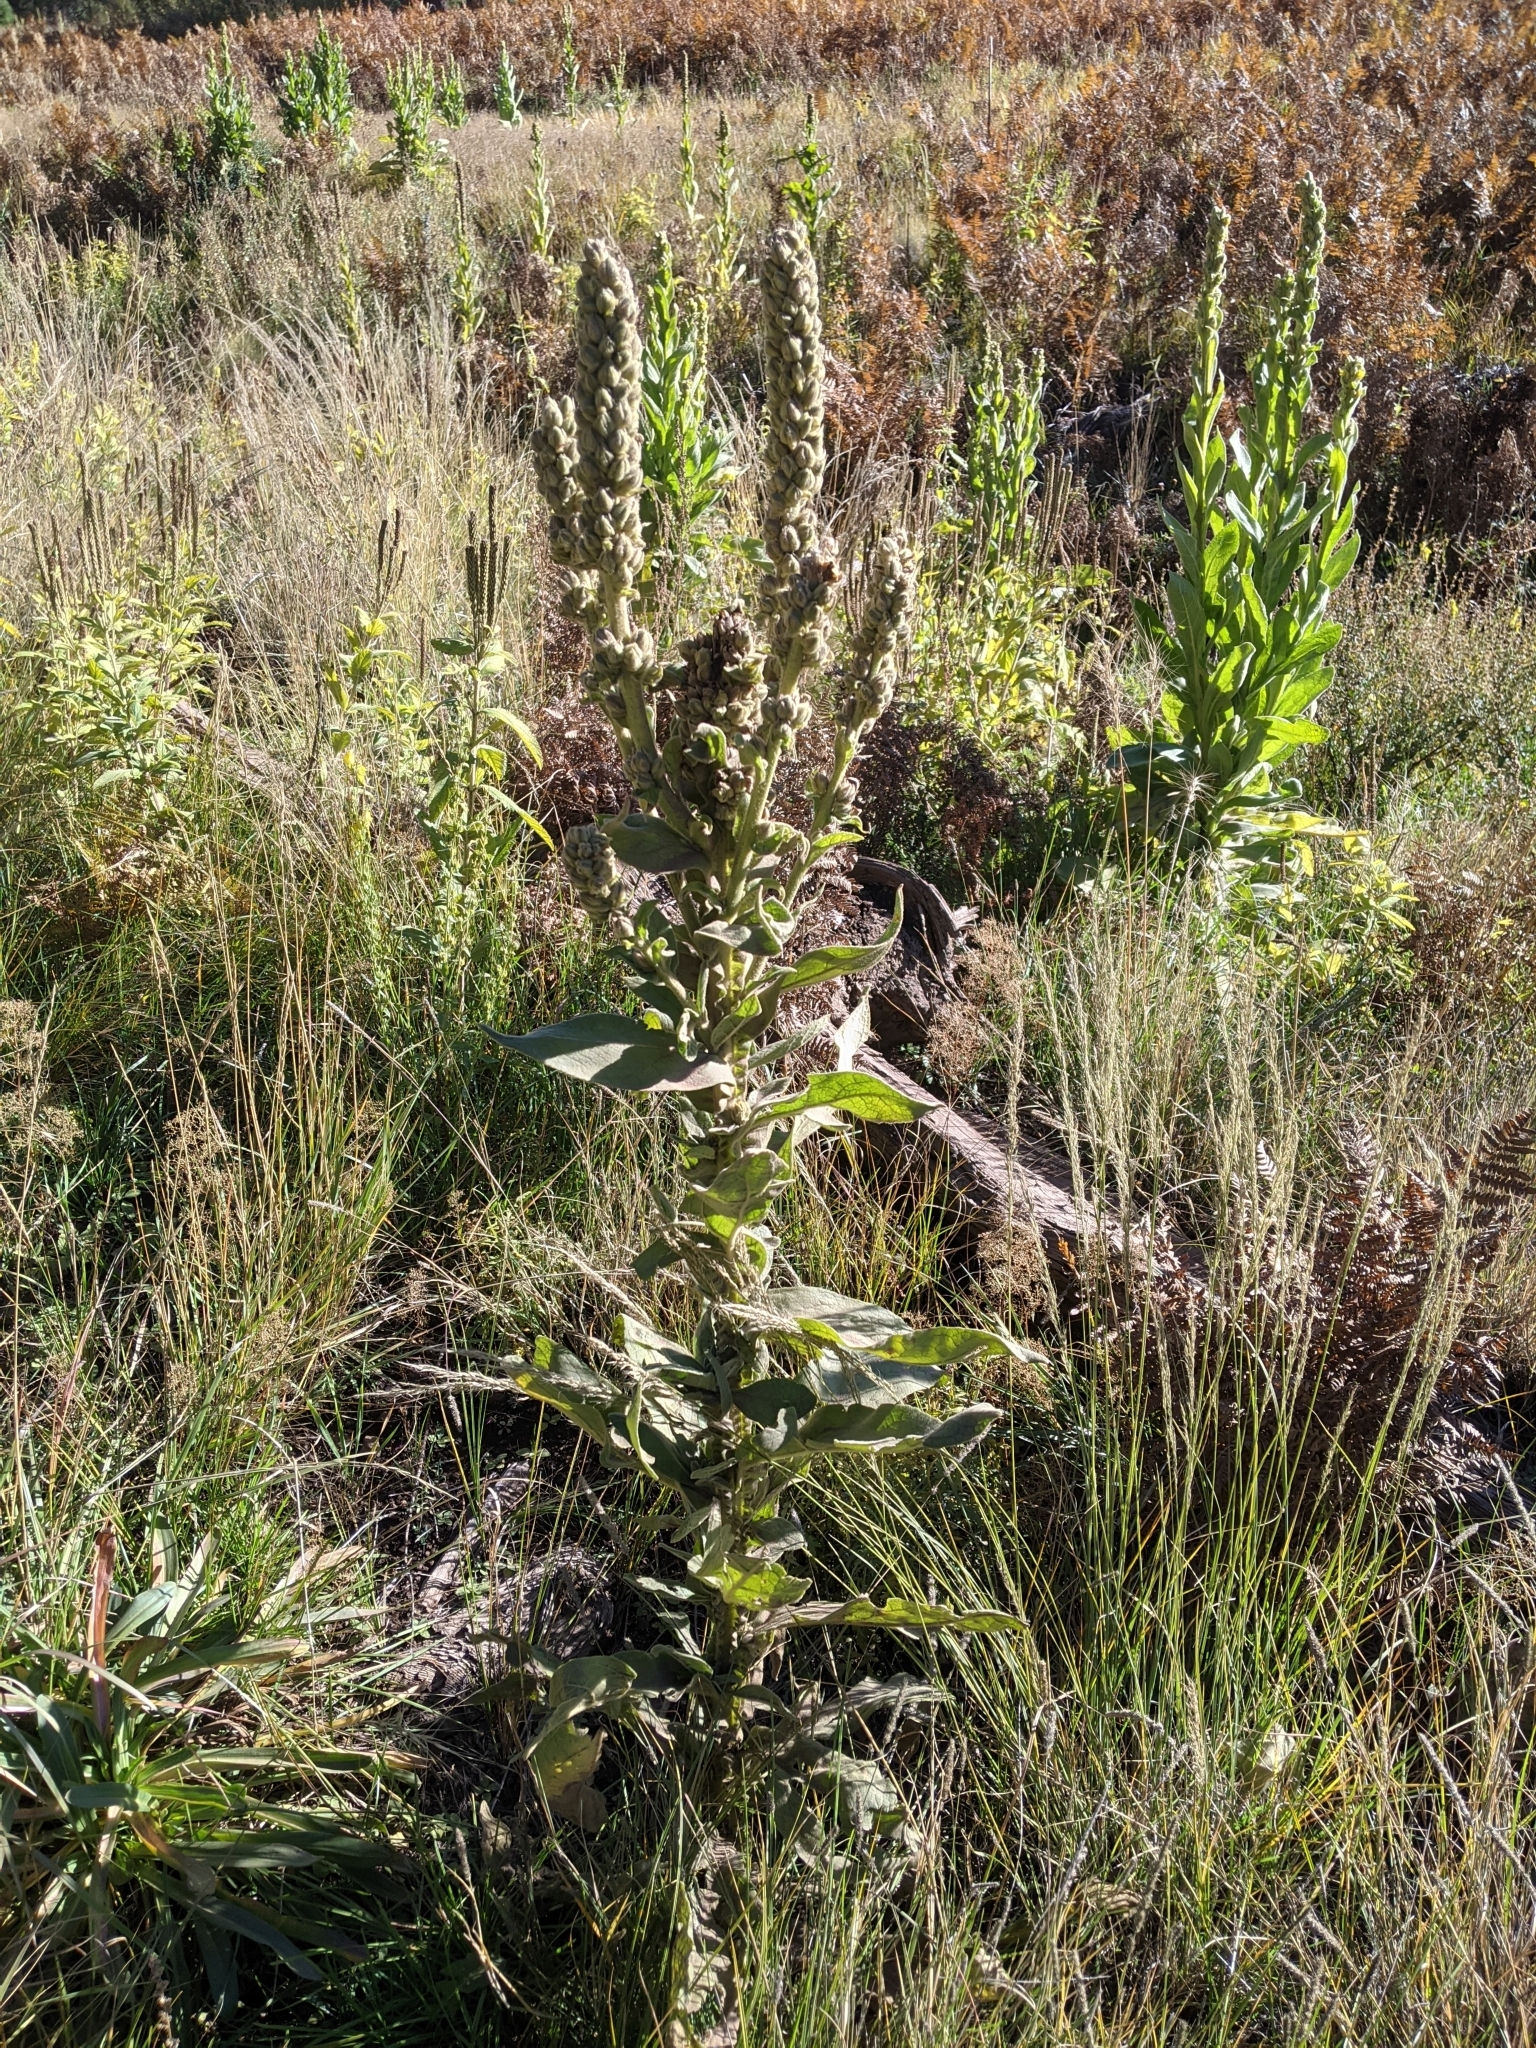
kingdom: Plantae
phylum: Tracheophyta
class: Magnoliopsida
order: Lamiales
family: Scrophulariaceae
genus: Verbascum
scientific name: Verbascum thapsus
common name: Common mullein
